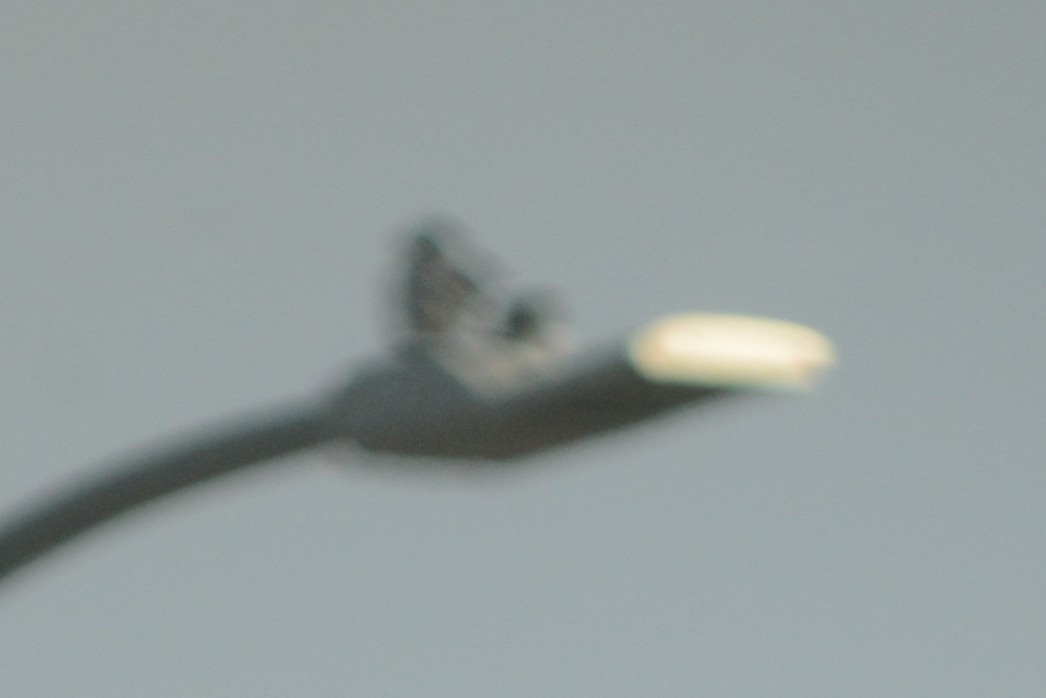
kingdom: Animalia
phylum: Chordata
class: Aves
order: Columbiformes
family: Columbidae
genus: Columba
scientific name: Columba livia
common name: Rock pigeon
